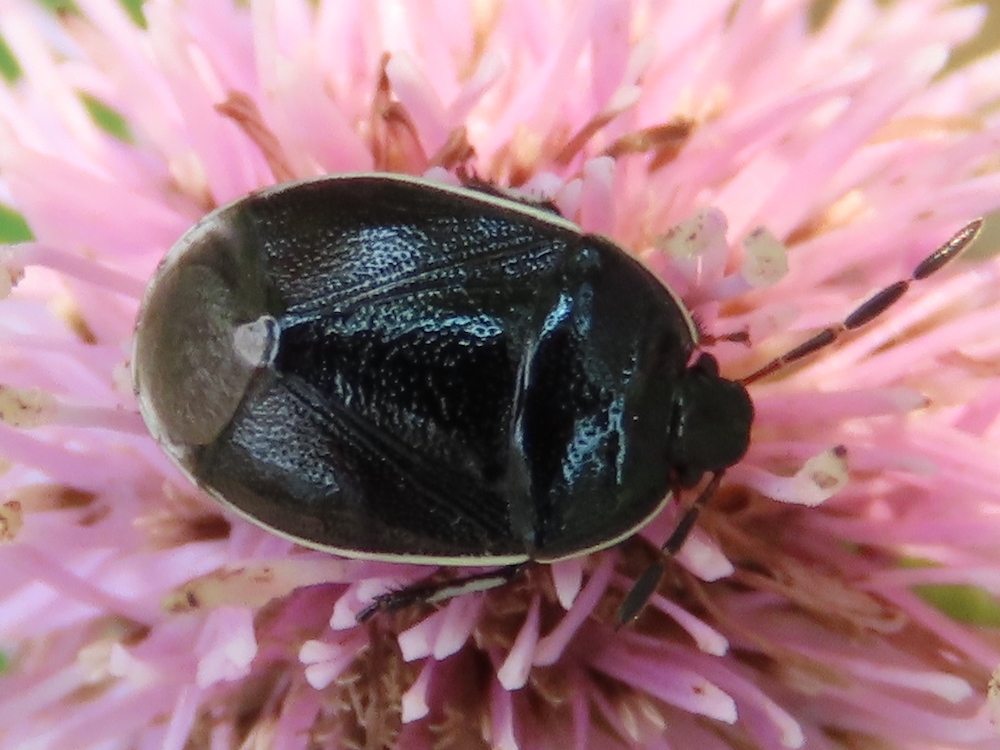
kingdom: Animalia
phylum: Arthropoda
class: Insecta
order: Hemiptera
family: Cydnidae
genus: Sehirus
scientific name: Sehirus cinctus
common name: White-margined burrower bug
